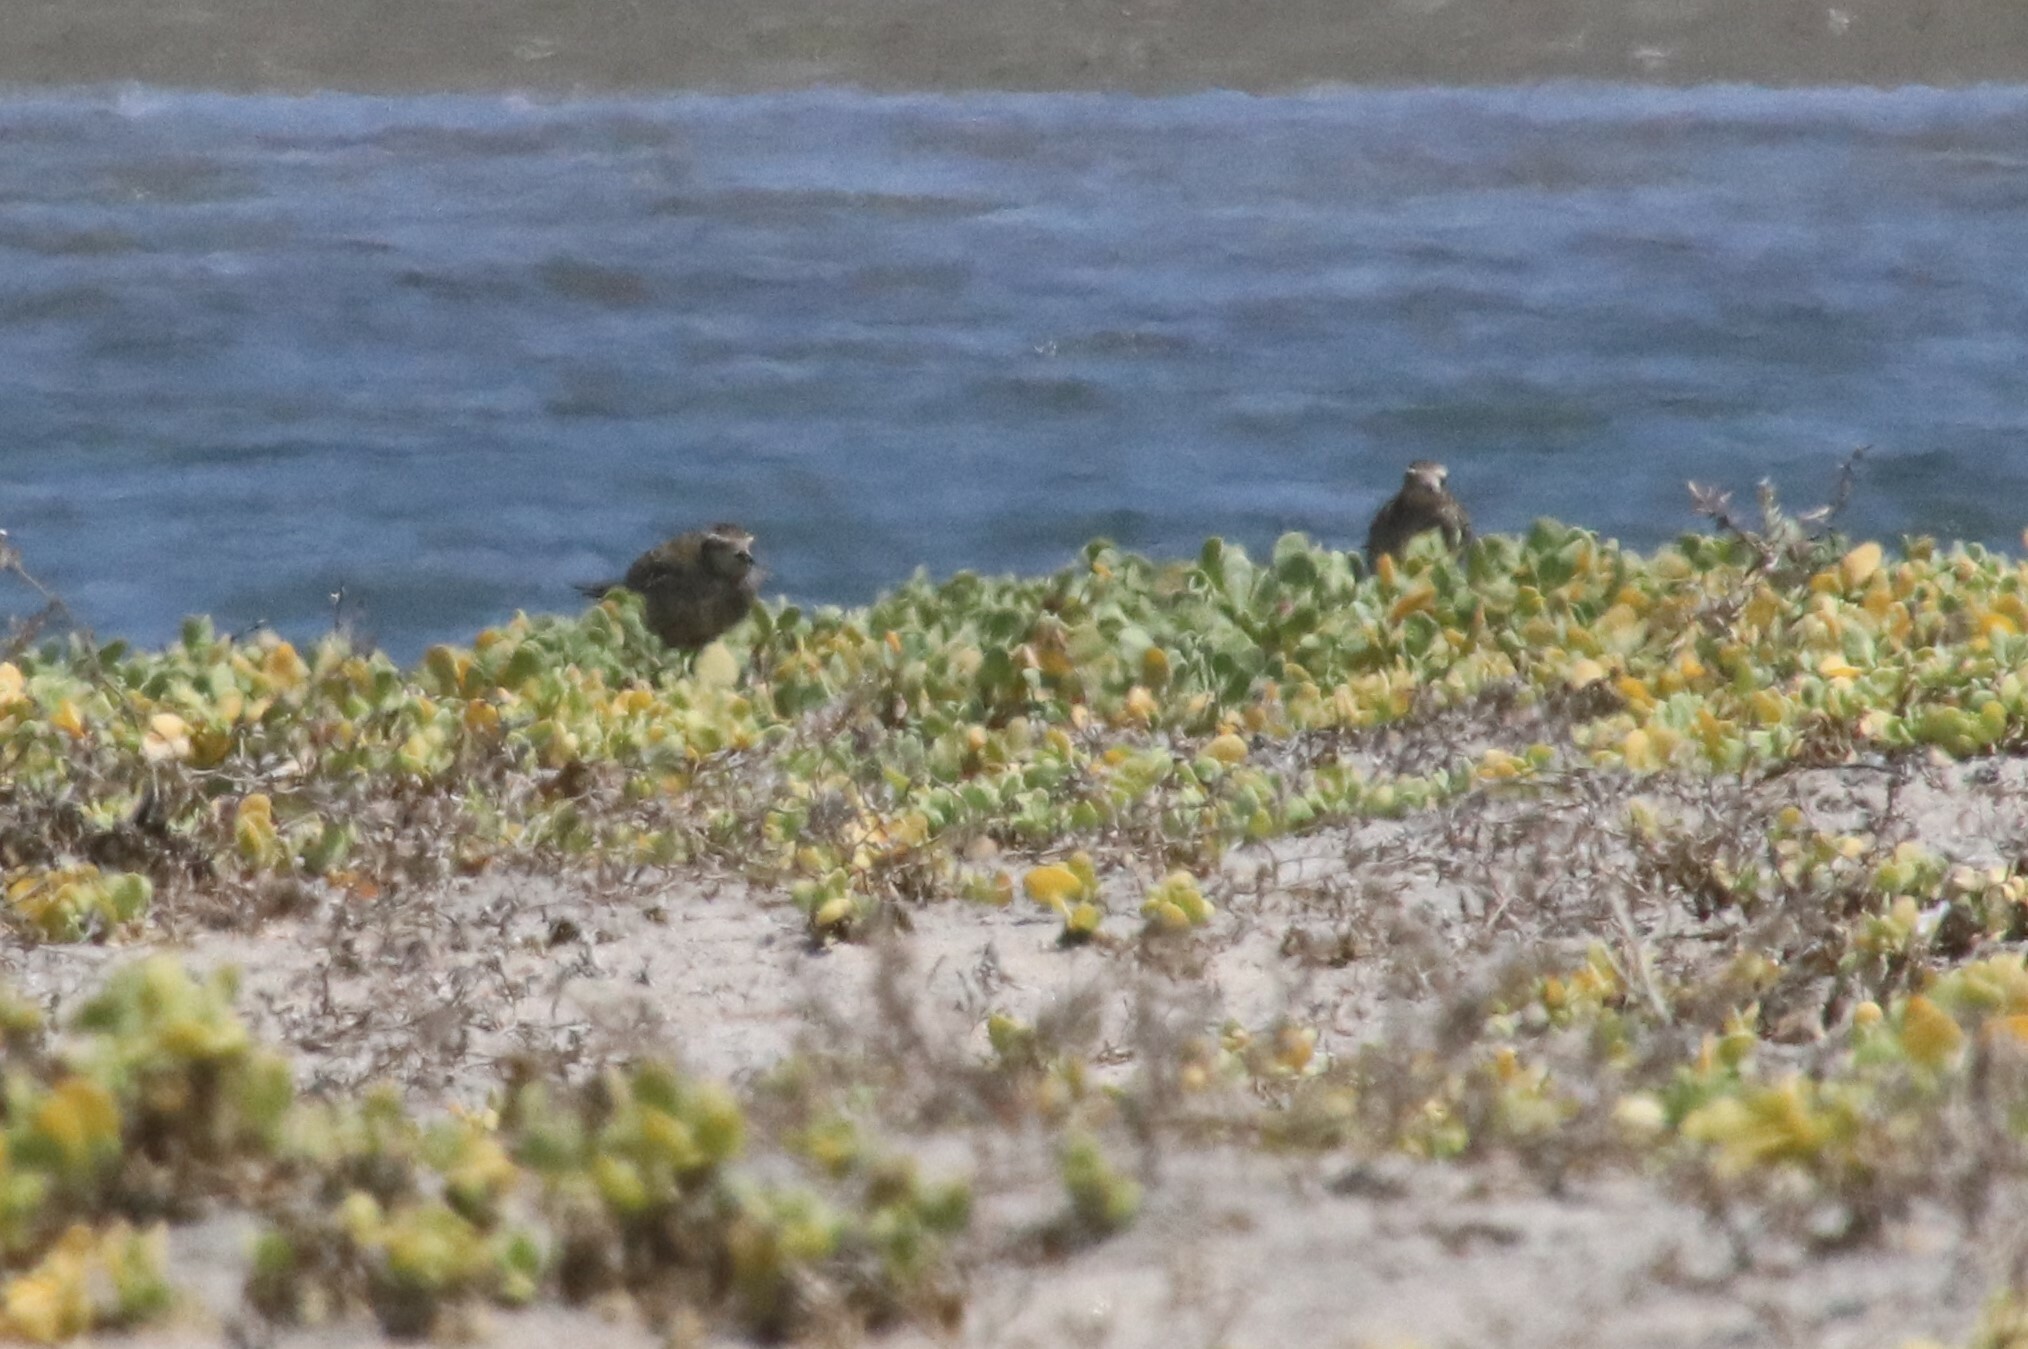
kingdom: Animalia
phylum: Chordata
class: Aves
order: Charadriiformes
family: Charadriidae
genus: Pluvialis
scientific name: Pluvialis fulva
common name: Pacific golden plover
